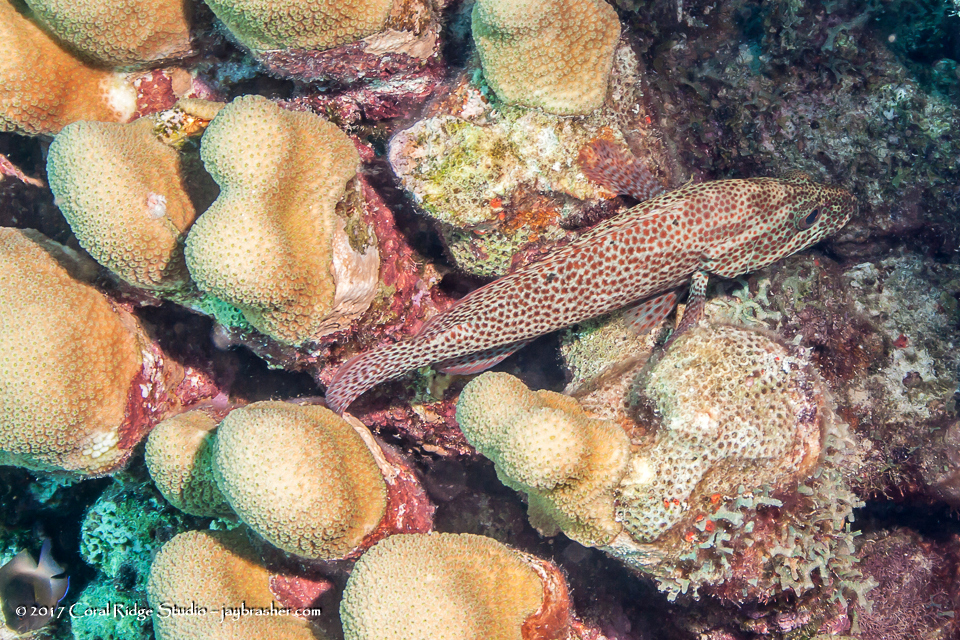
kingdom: Animalia
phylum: Chordata
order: Perciformes
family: Serranidae
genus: Cephalopholis
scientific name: Cephalopholis cruentata
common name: Graysby
